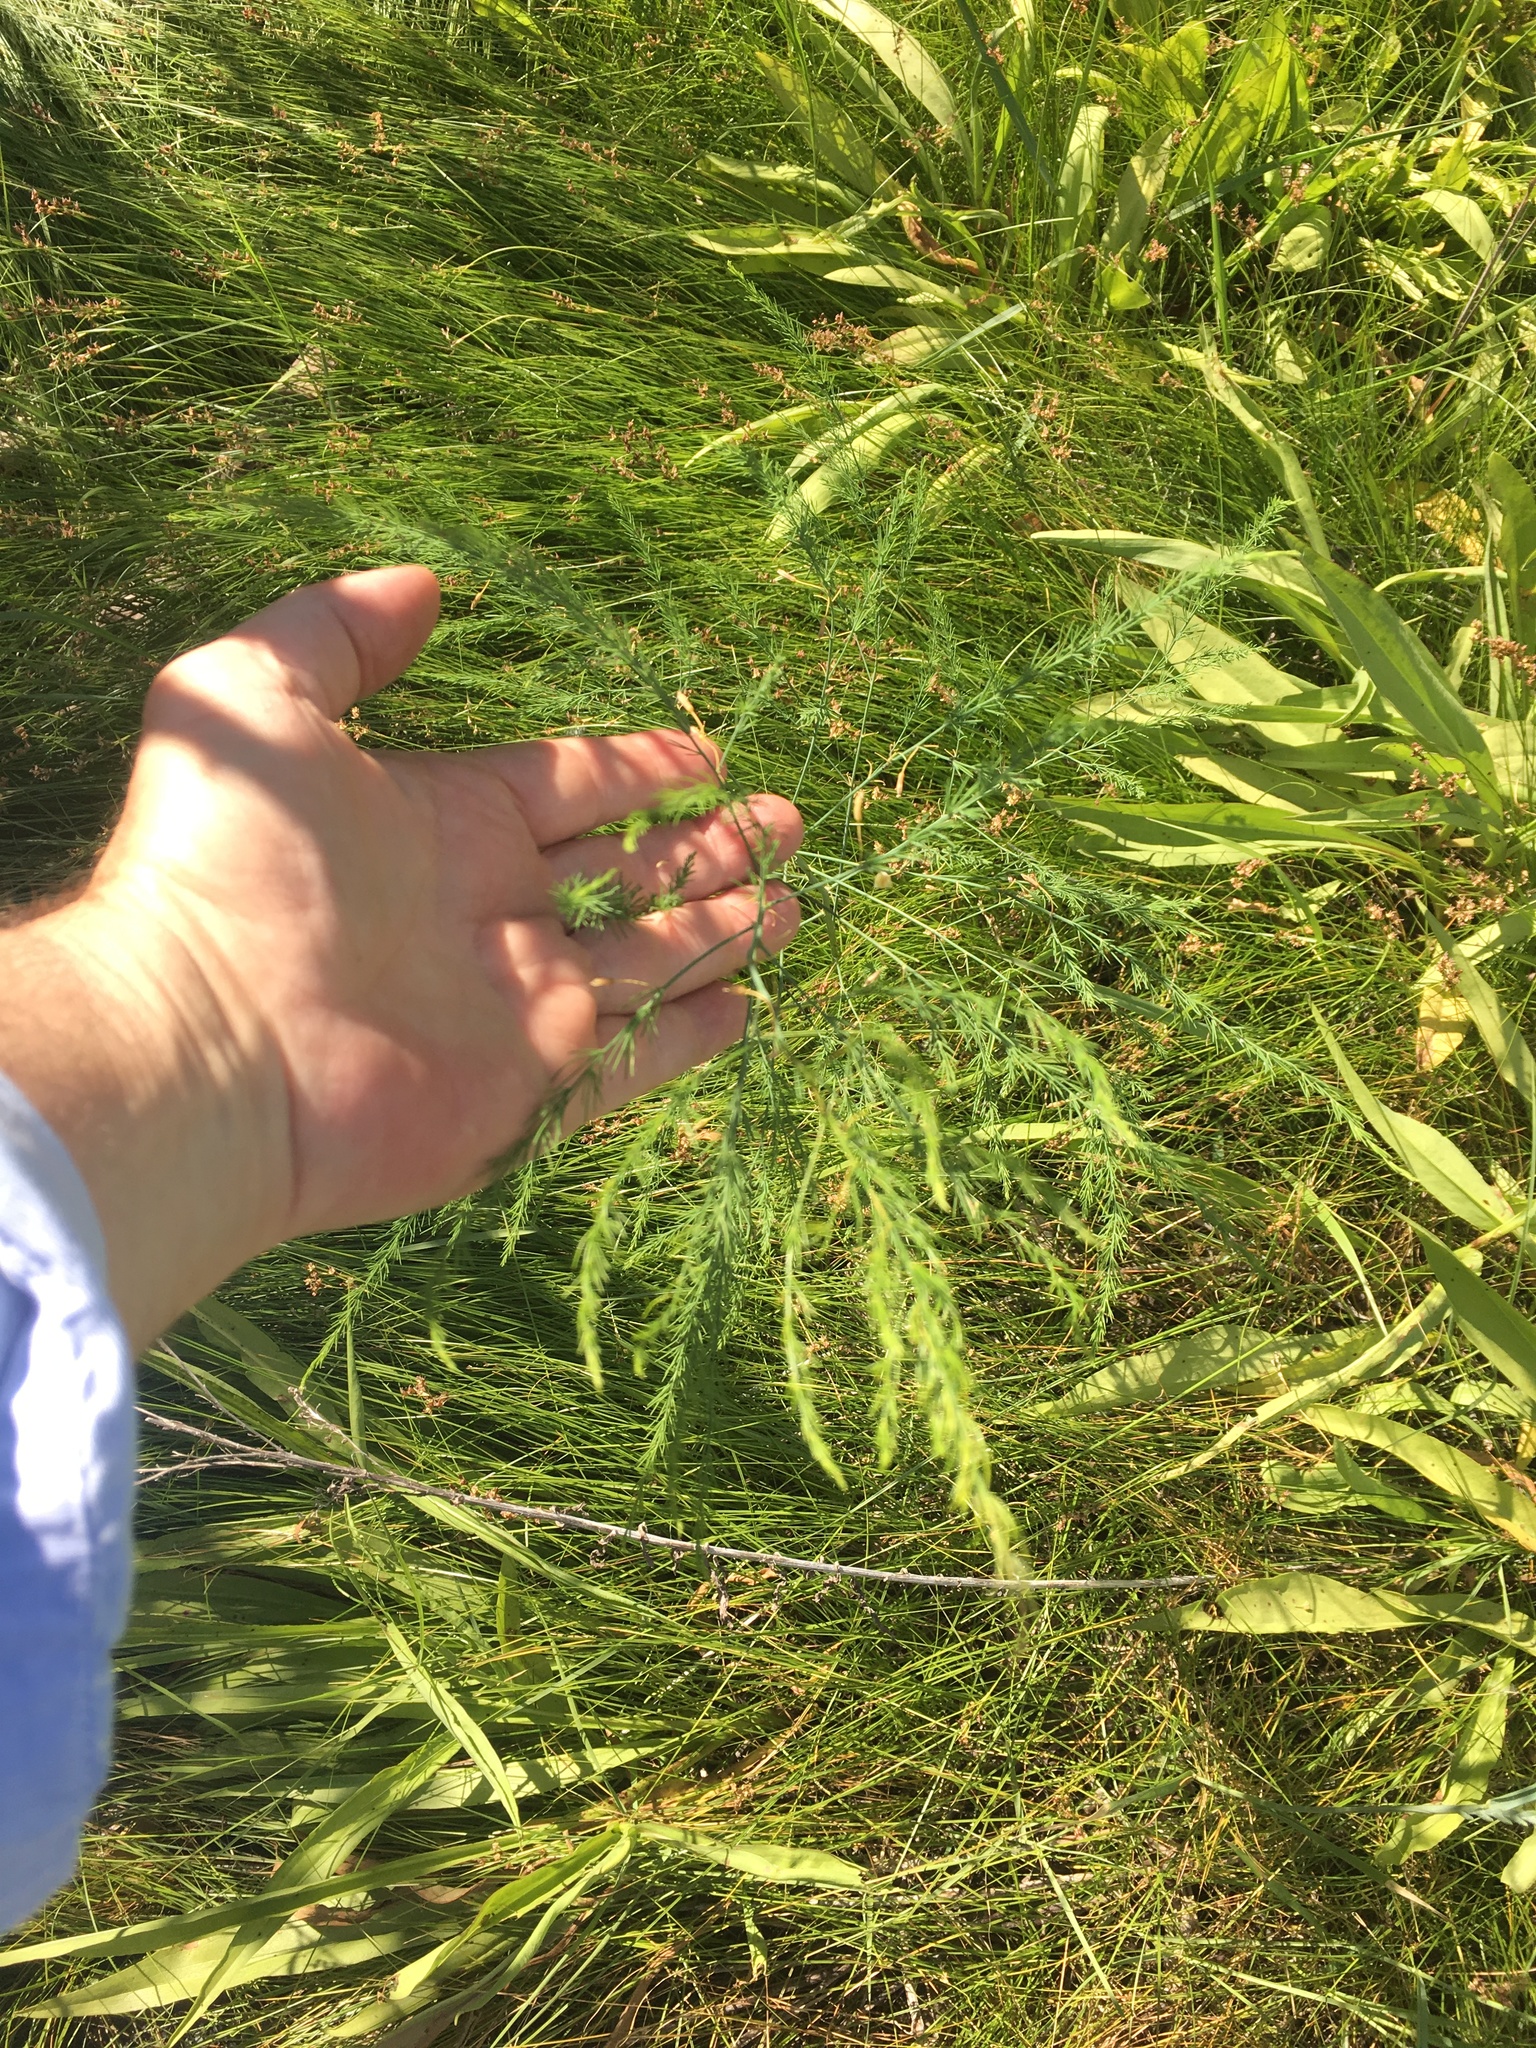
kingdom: Plantae
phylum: Tracheophyta
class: Liliopsida
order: Asparagales
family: Asparagaceae
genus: Asparagus
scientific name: Asparagus officinalis
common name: Garden asparagus
